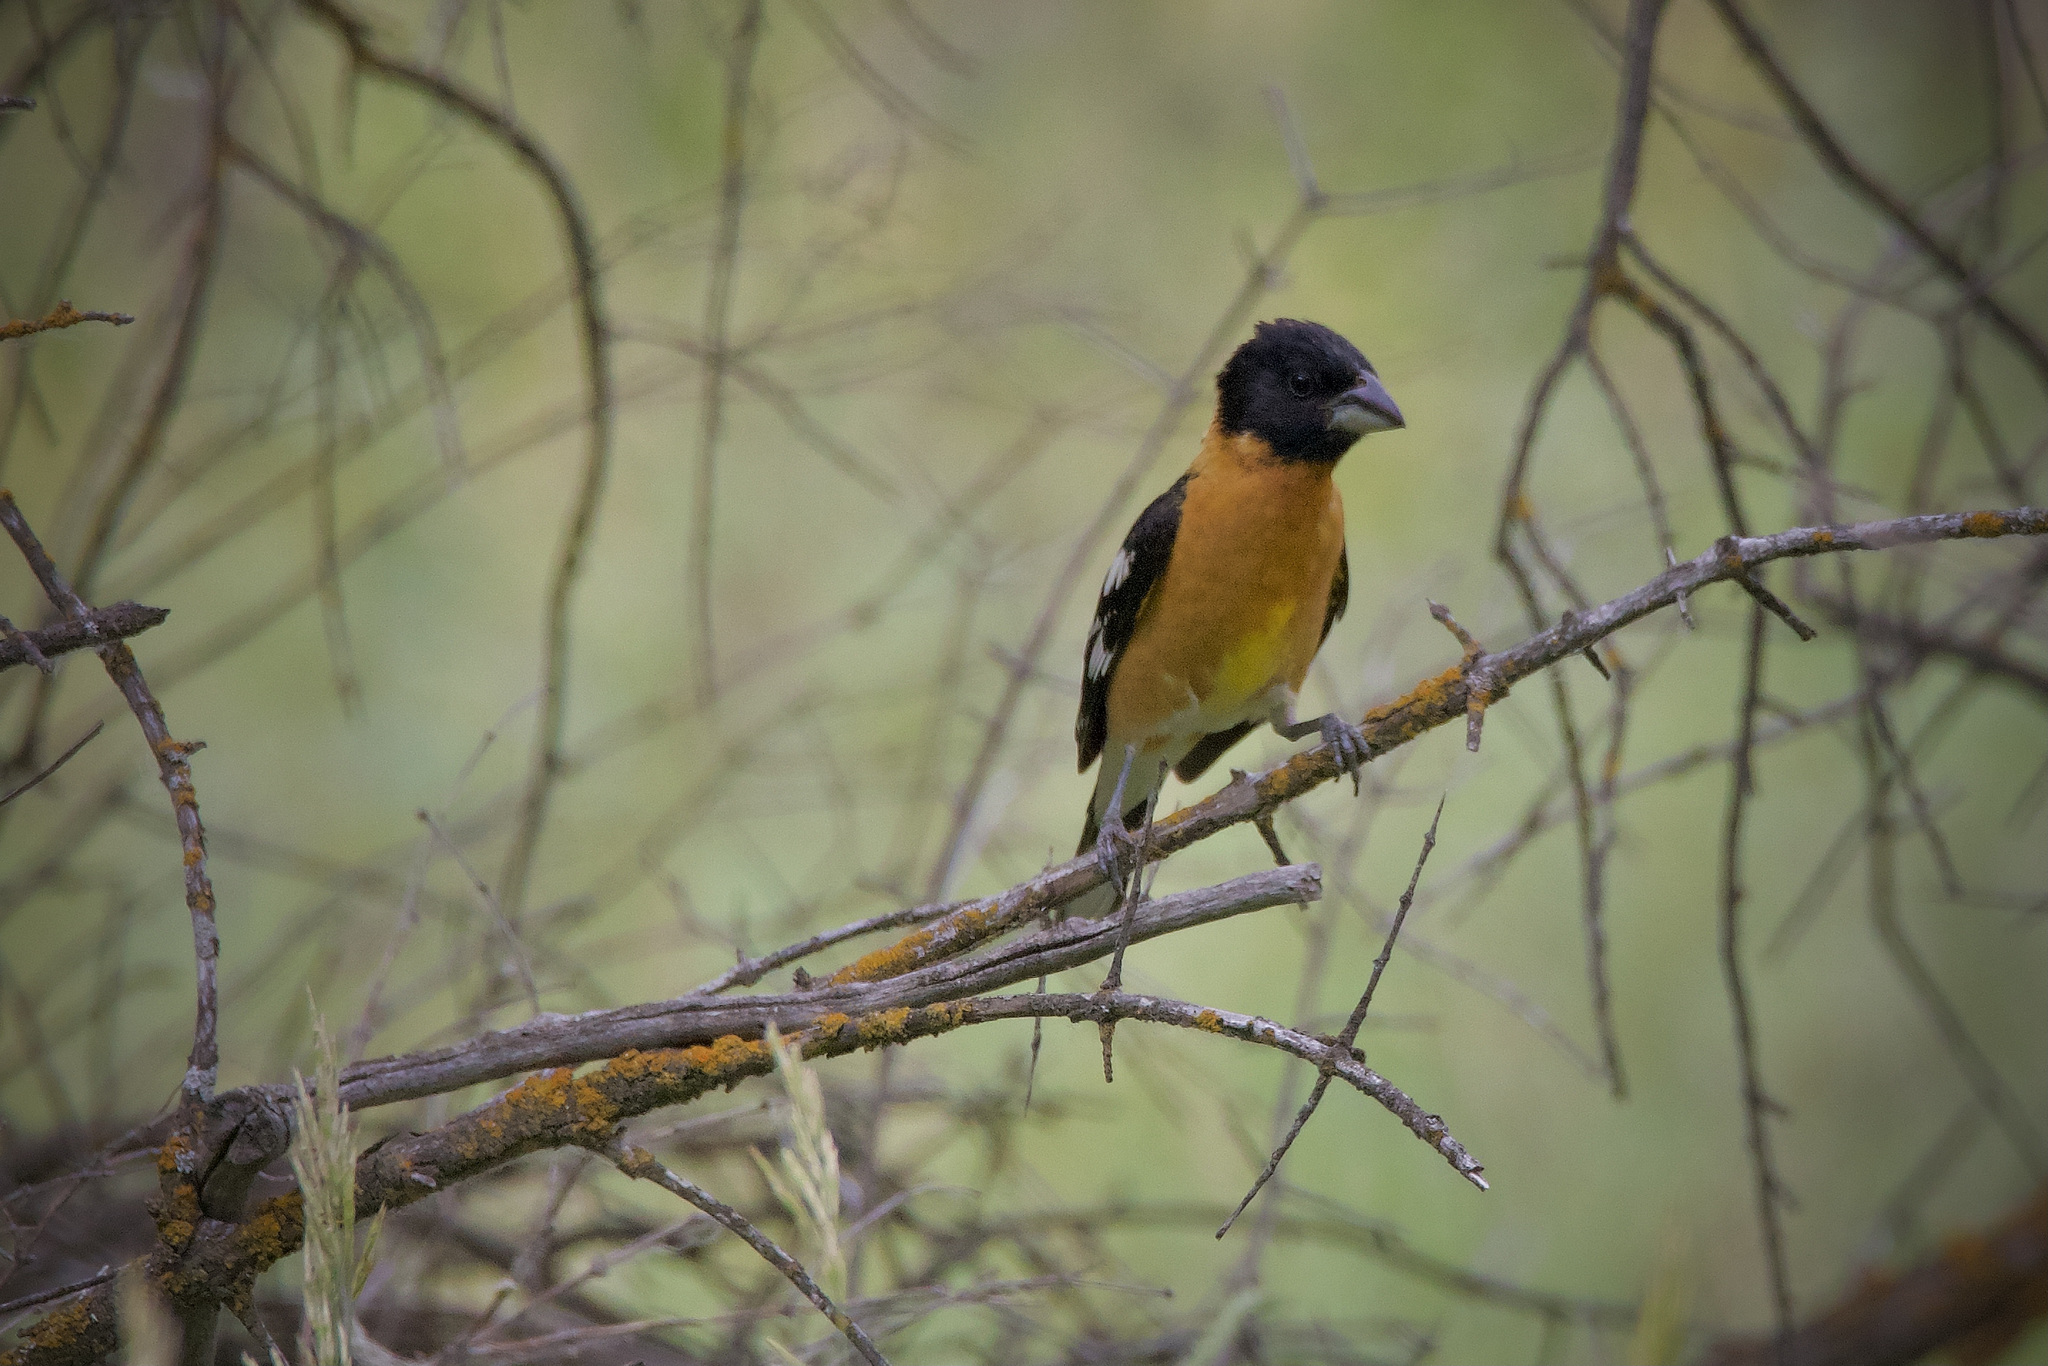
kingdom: Animalia
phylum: Chordata
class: Aves
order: Passeriformes
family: Cardinalidae
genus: Pheucticus
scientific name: Pheucticus melanocephalus
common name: Black-headed grosbeak
